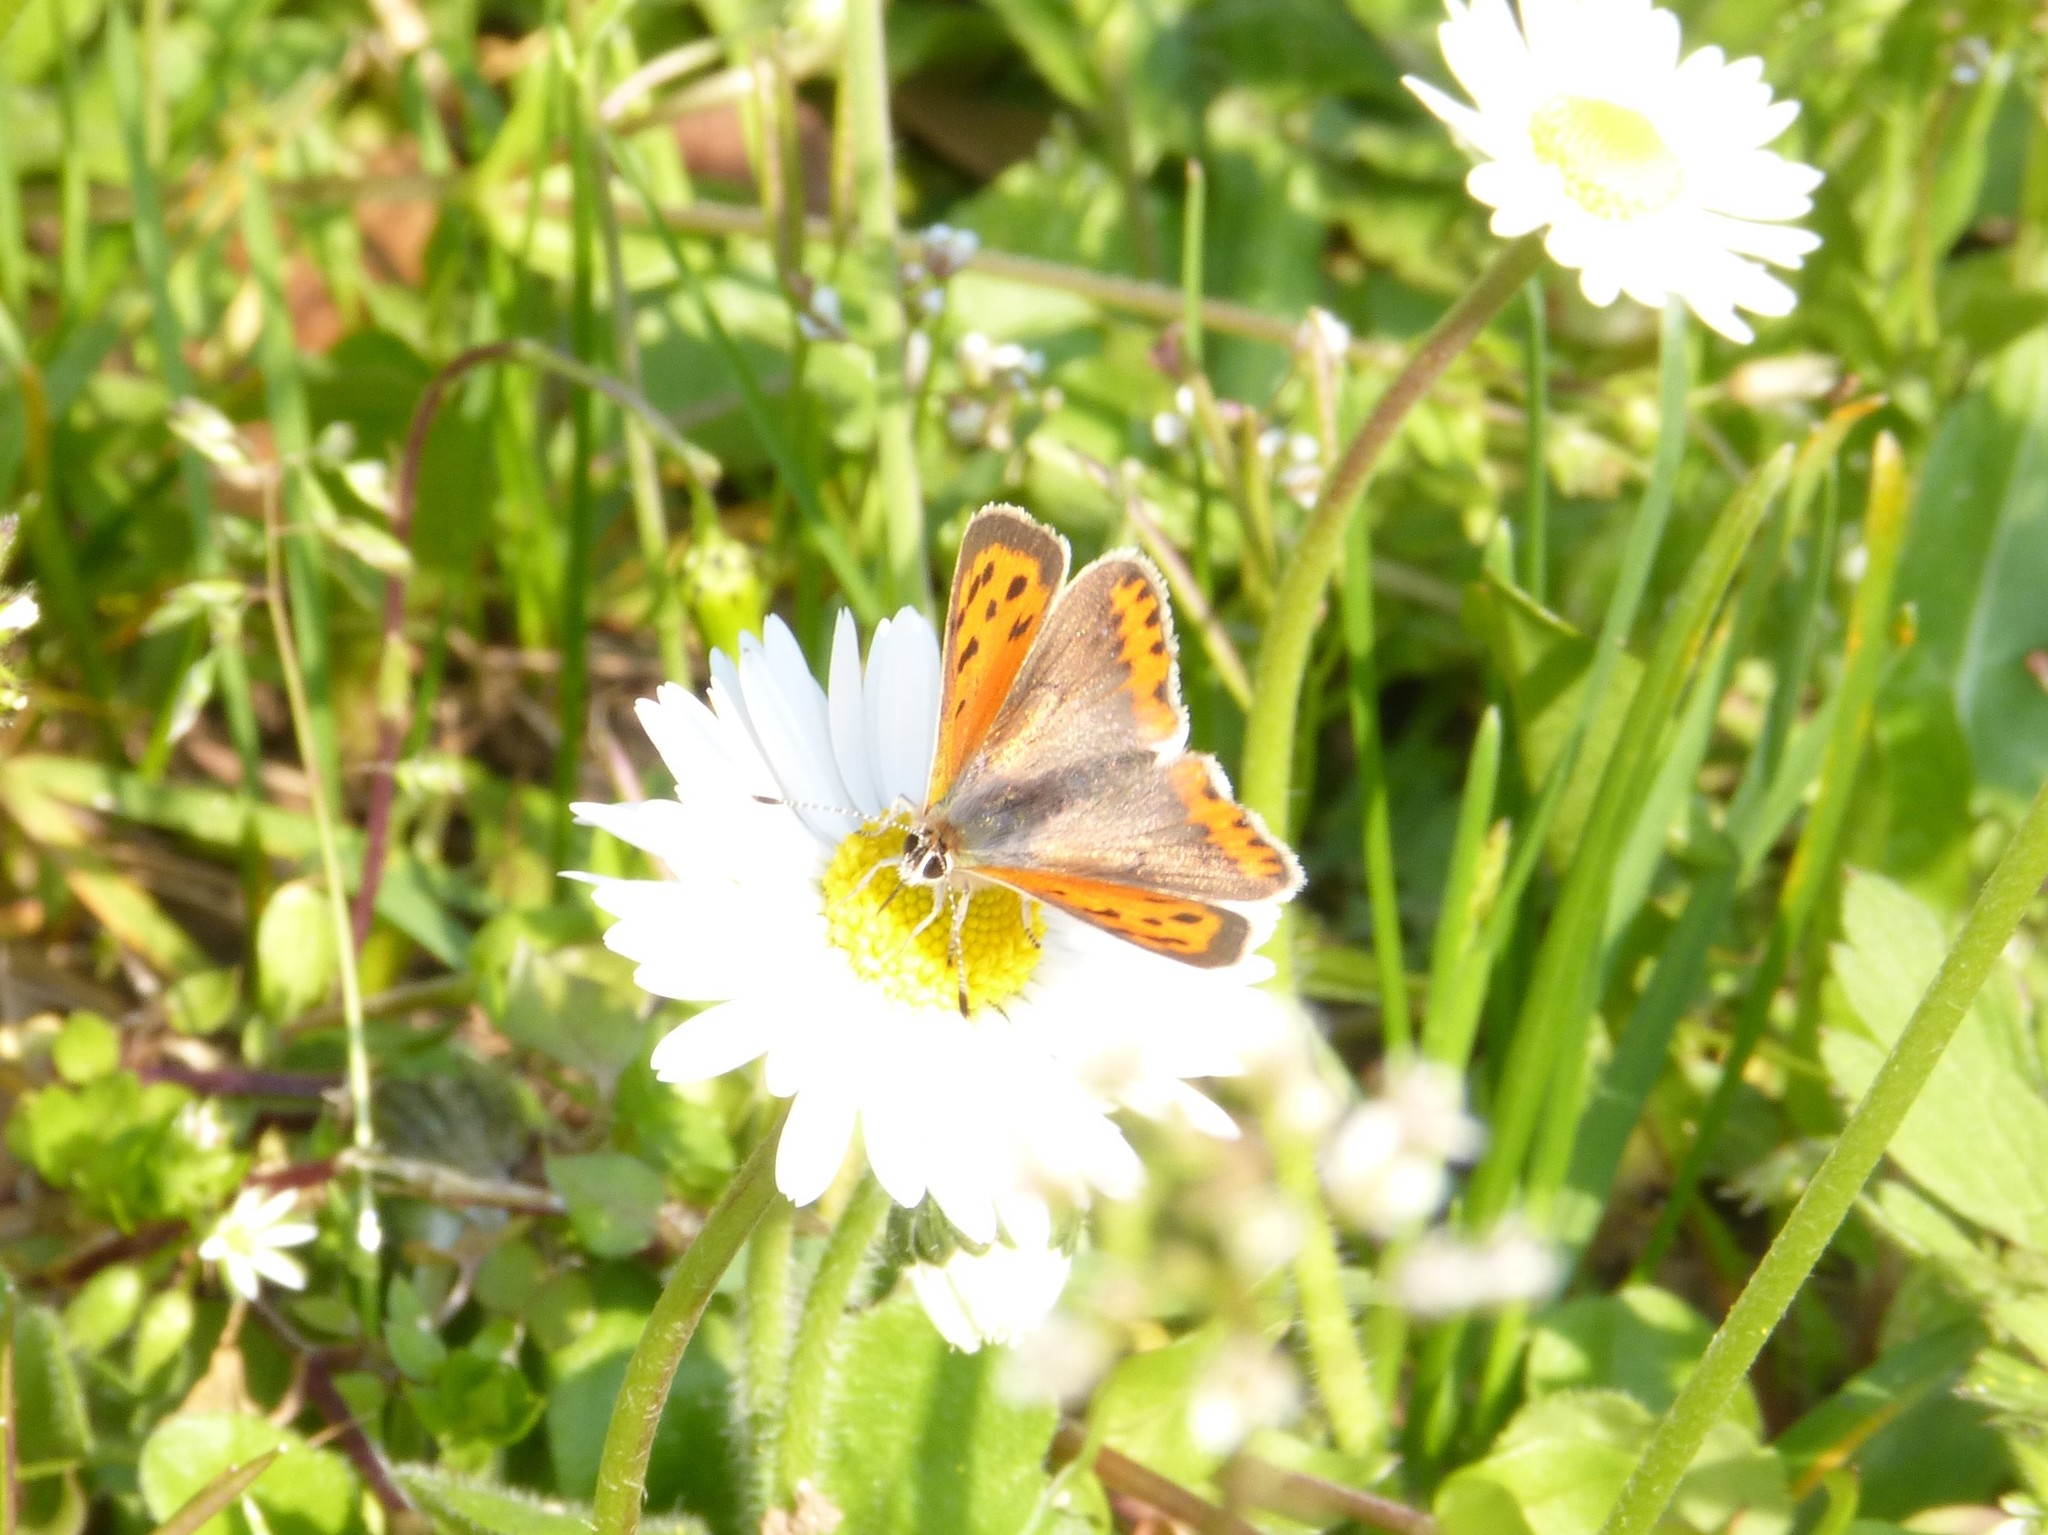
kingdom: Animalia
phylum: Arthropoda
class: Insecta
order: Lepidoptera
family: Lycaenidae
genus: Lycaena
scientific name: Lycaena phlaeas
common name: Small copper
